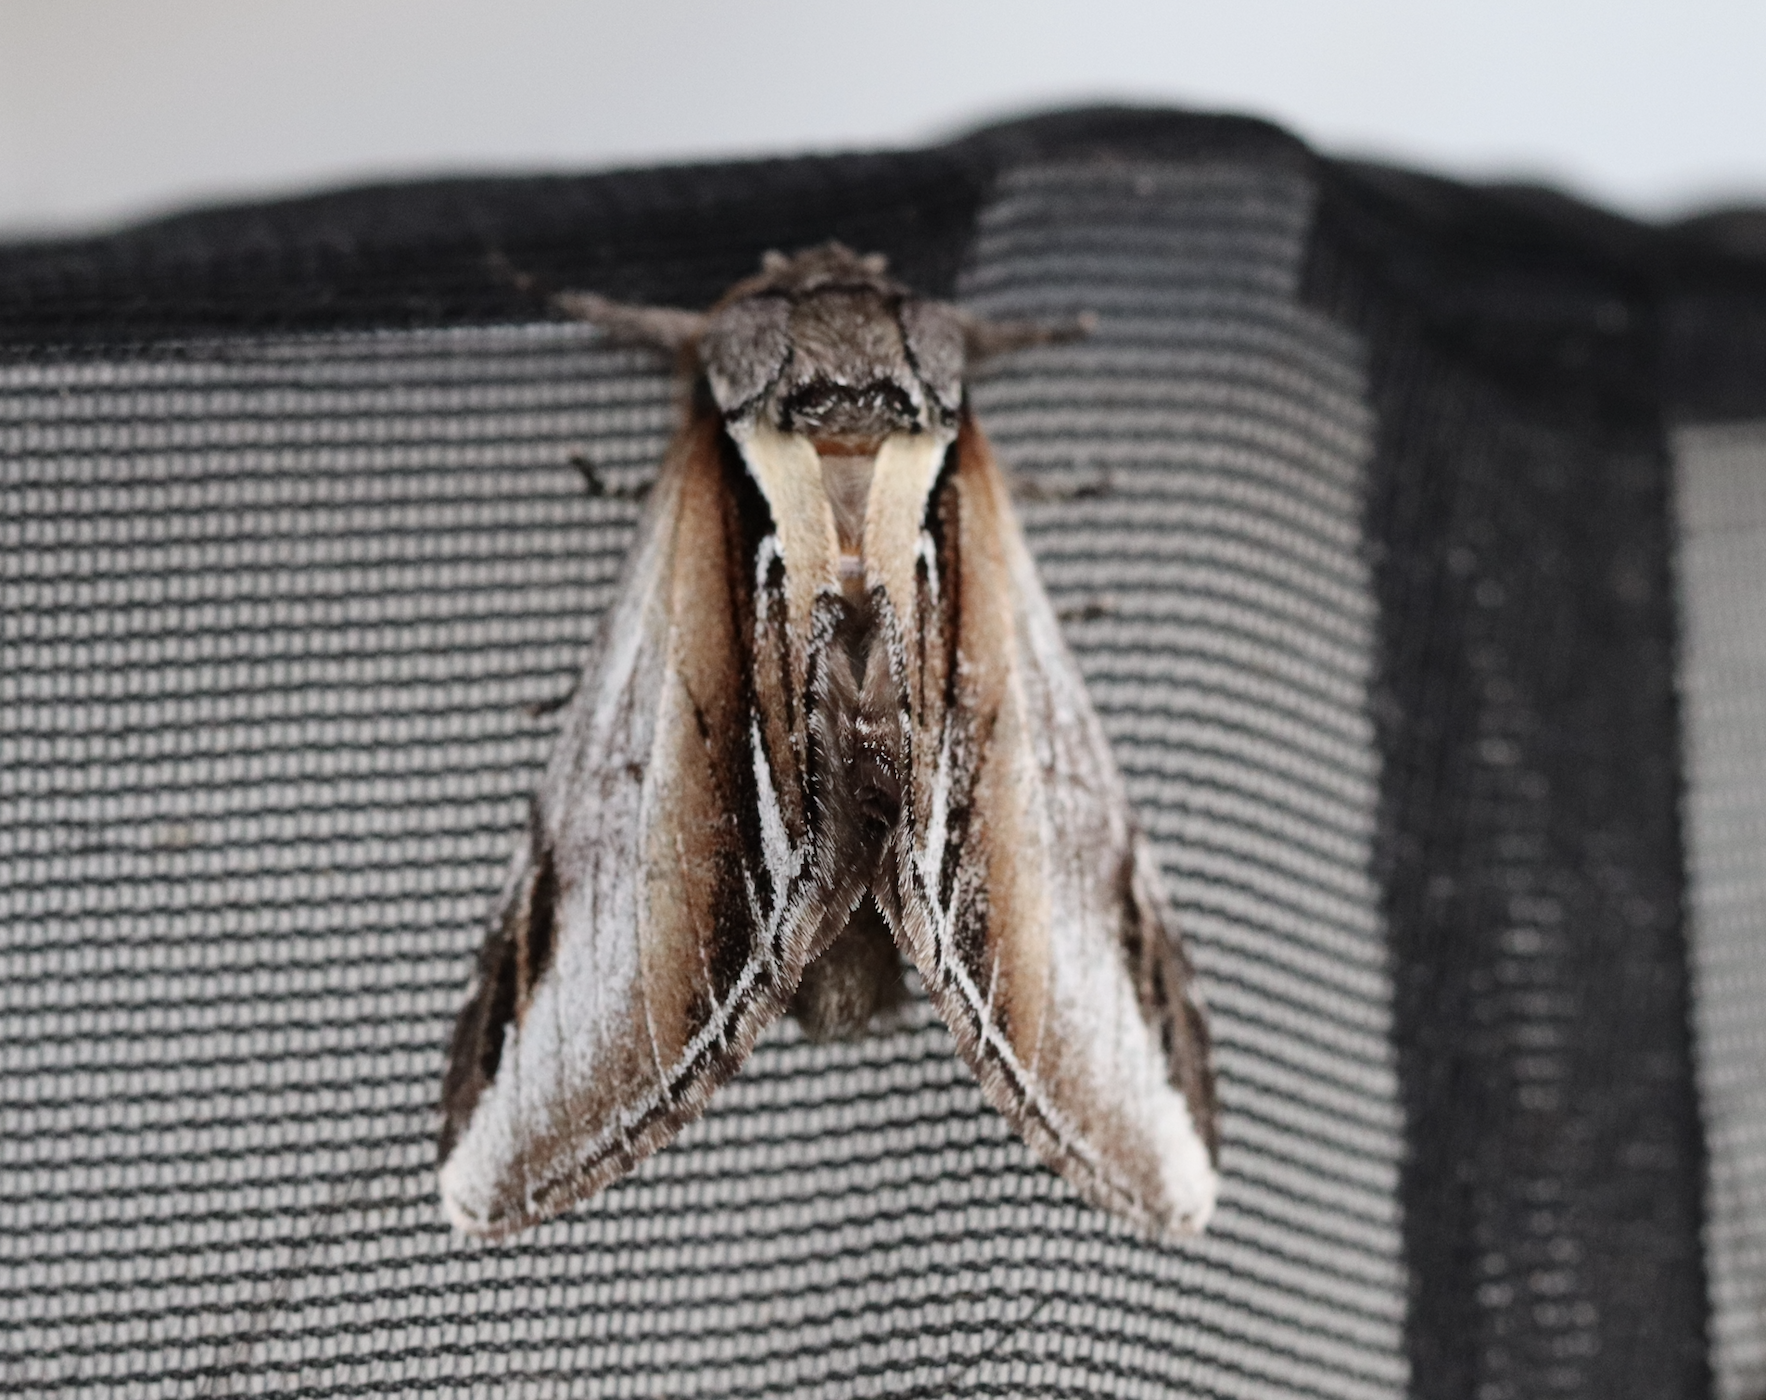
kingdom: Animalia
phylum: Arthropoda
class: Insecta
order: Lepidoptera
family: Notodontidae
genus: Pheosia
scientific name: Pheosia gnoma
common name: Lesser swallow prominent
